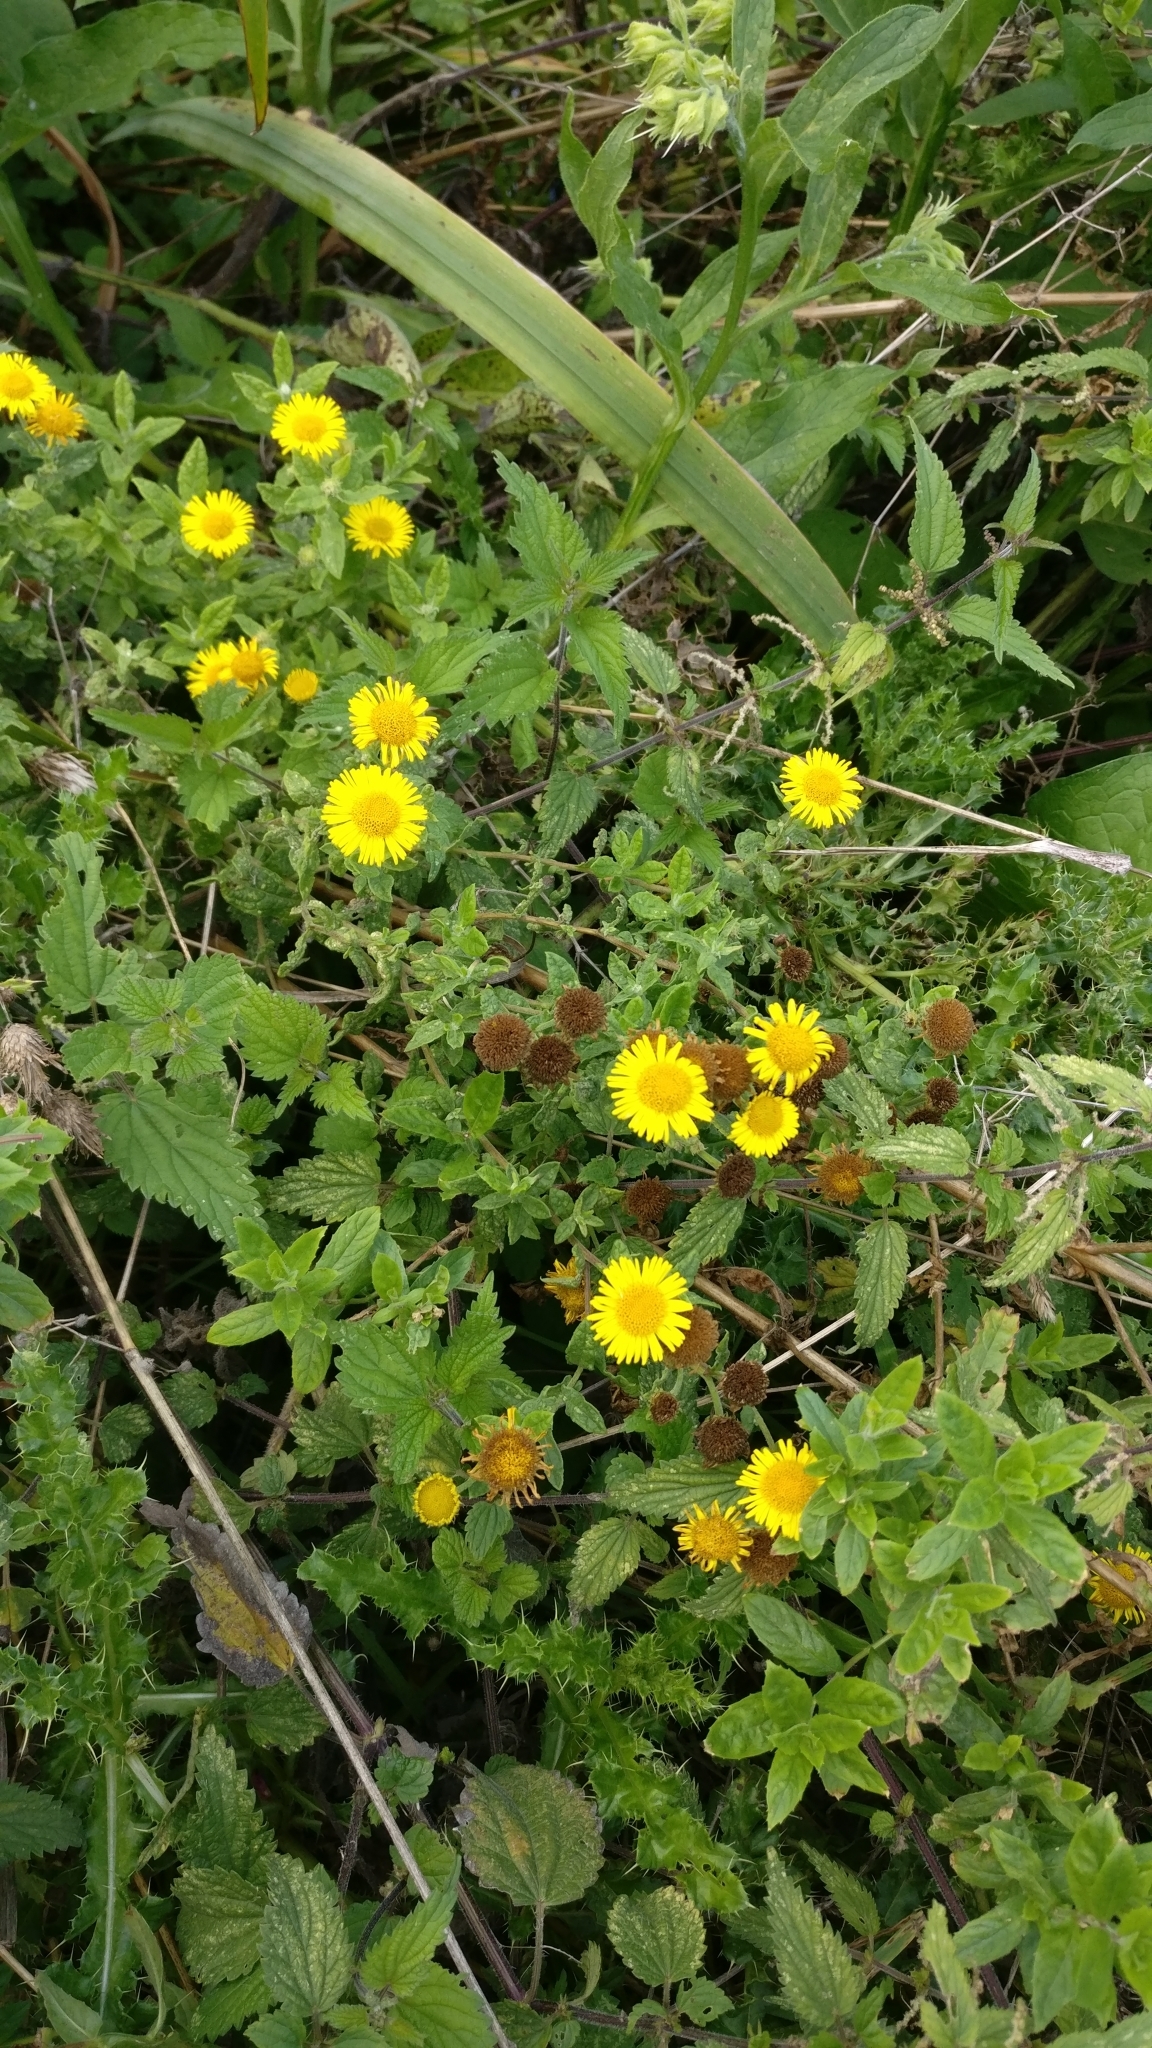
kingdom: Plantae
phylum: Tracheophyta
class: Magnoliopsida
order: Asterales
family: Asteraceae
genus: Pulicaria
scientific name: Pulicaria dysenterica
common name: Common fleabane
